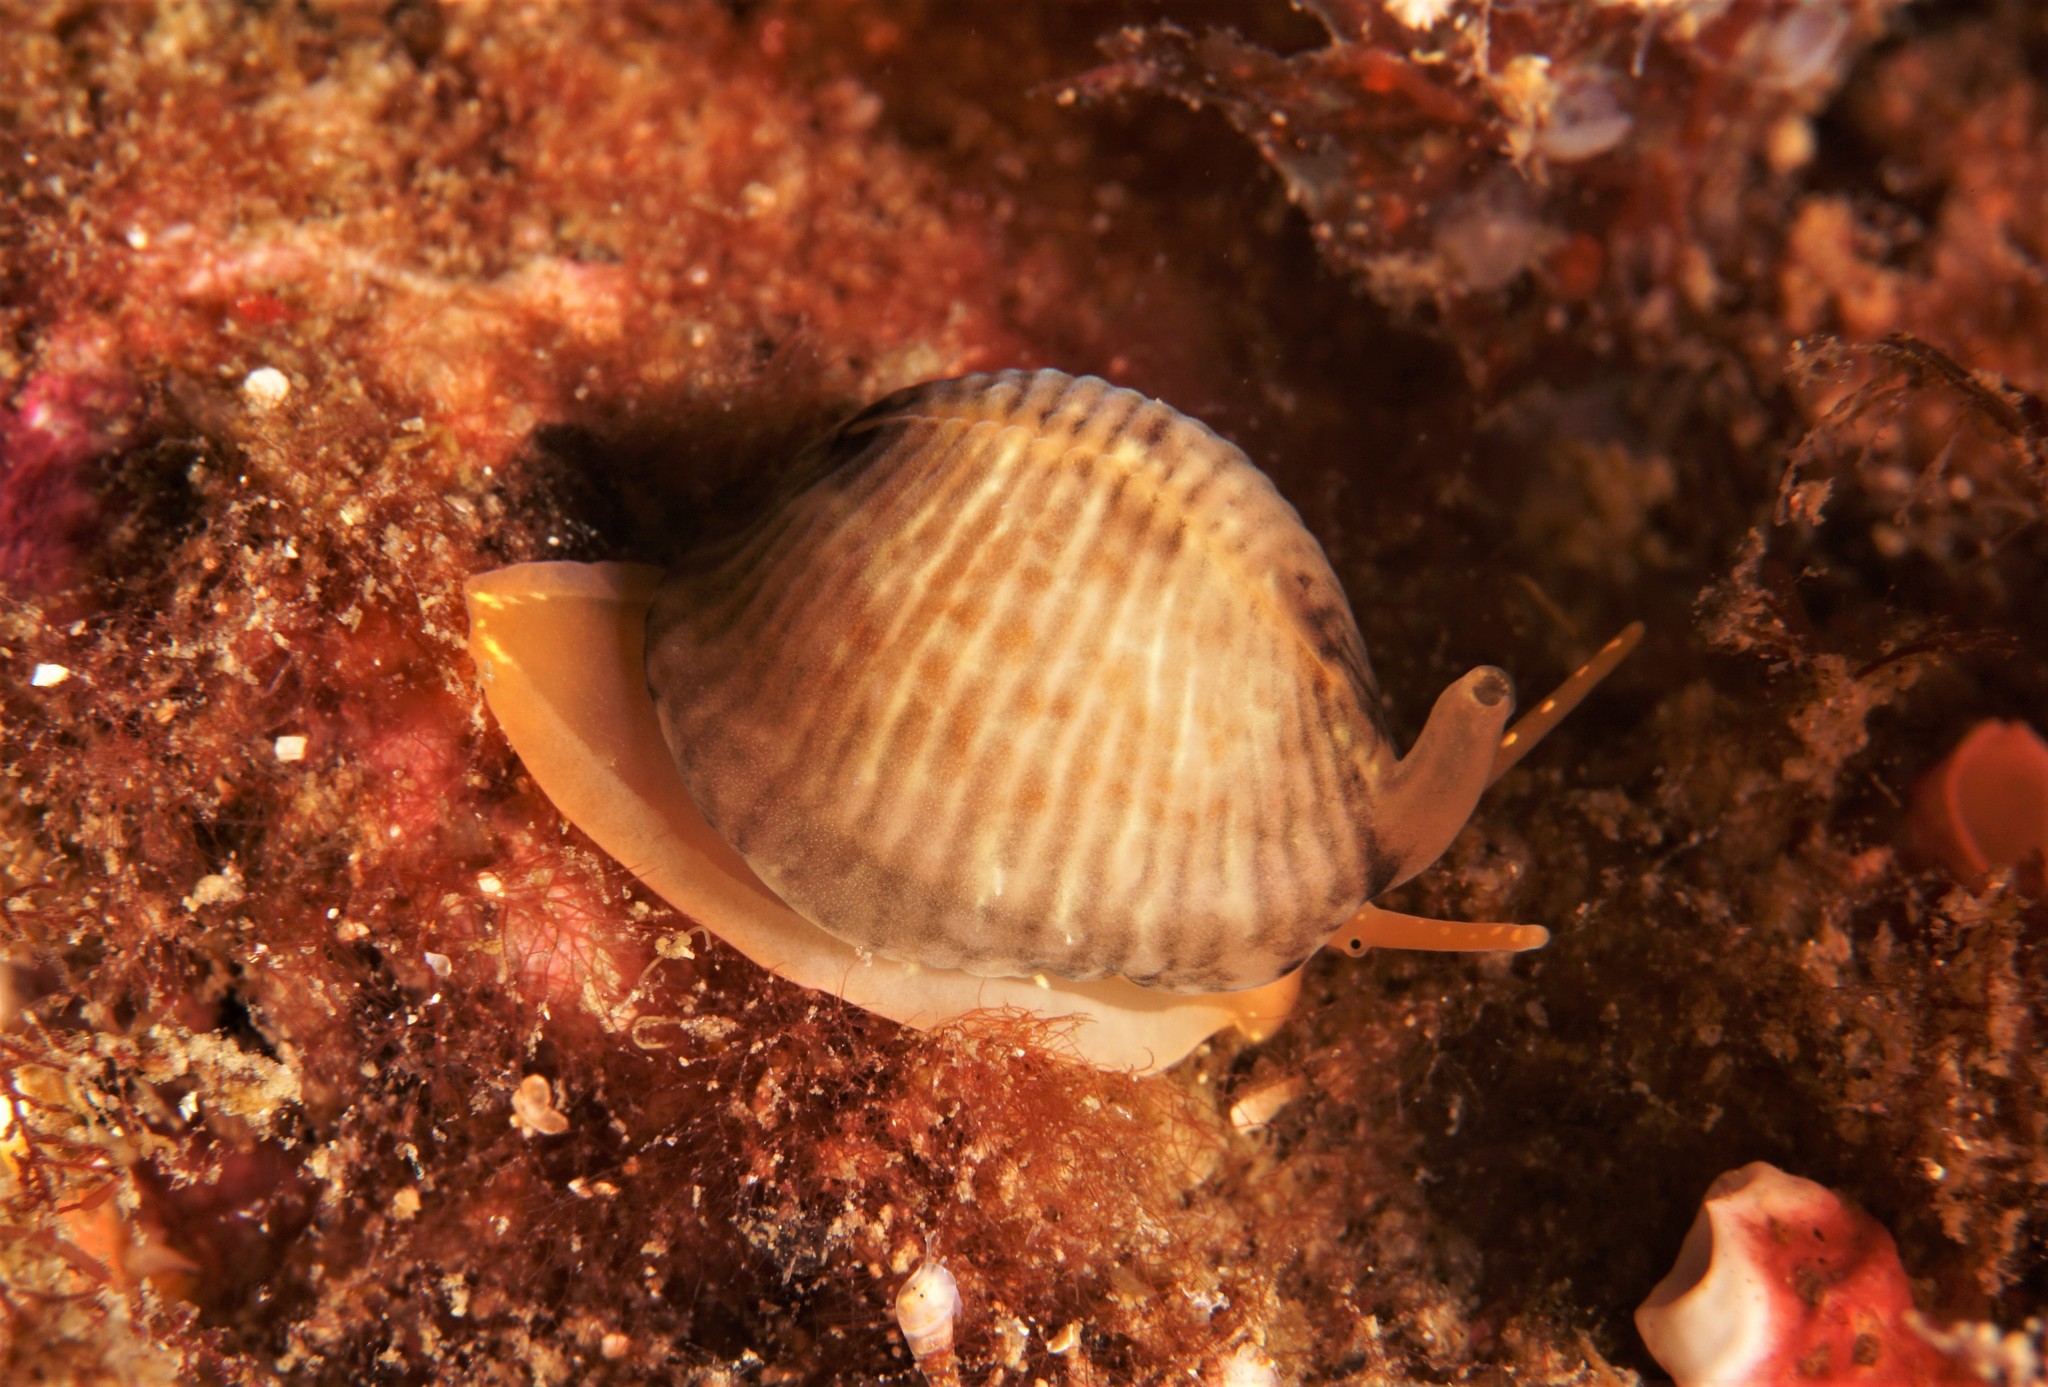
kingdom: Animalia
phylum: Mollusca
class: Gastropoda
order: Littorinimorpha
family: Triviidae
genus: Trivia
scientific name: Trivia arctica
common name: Arctic cowrie
